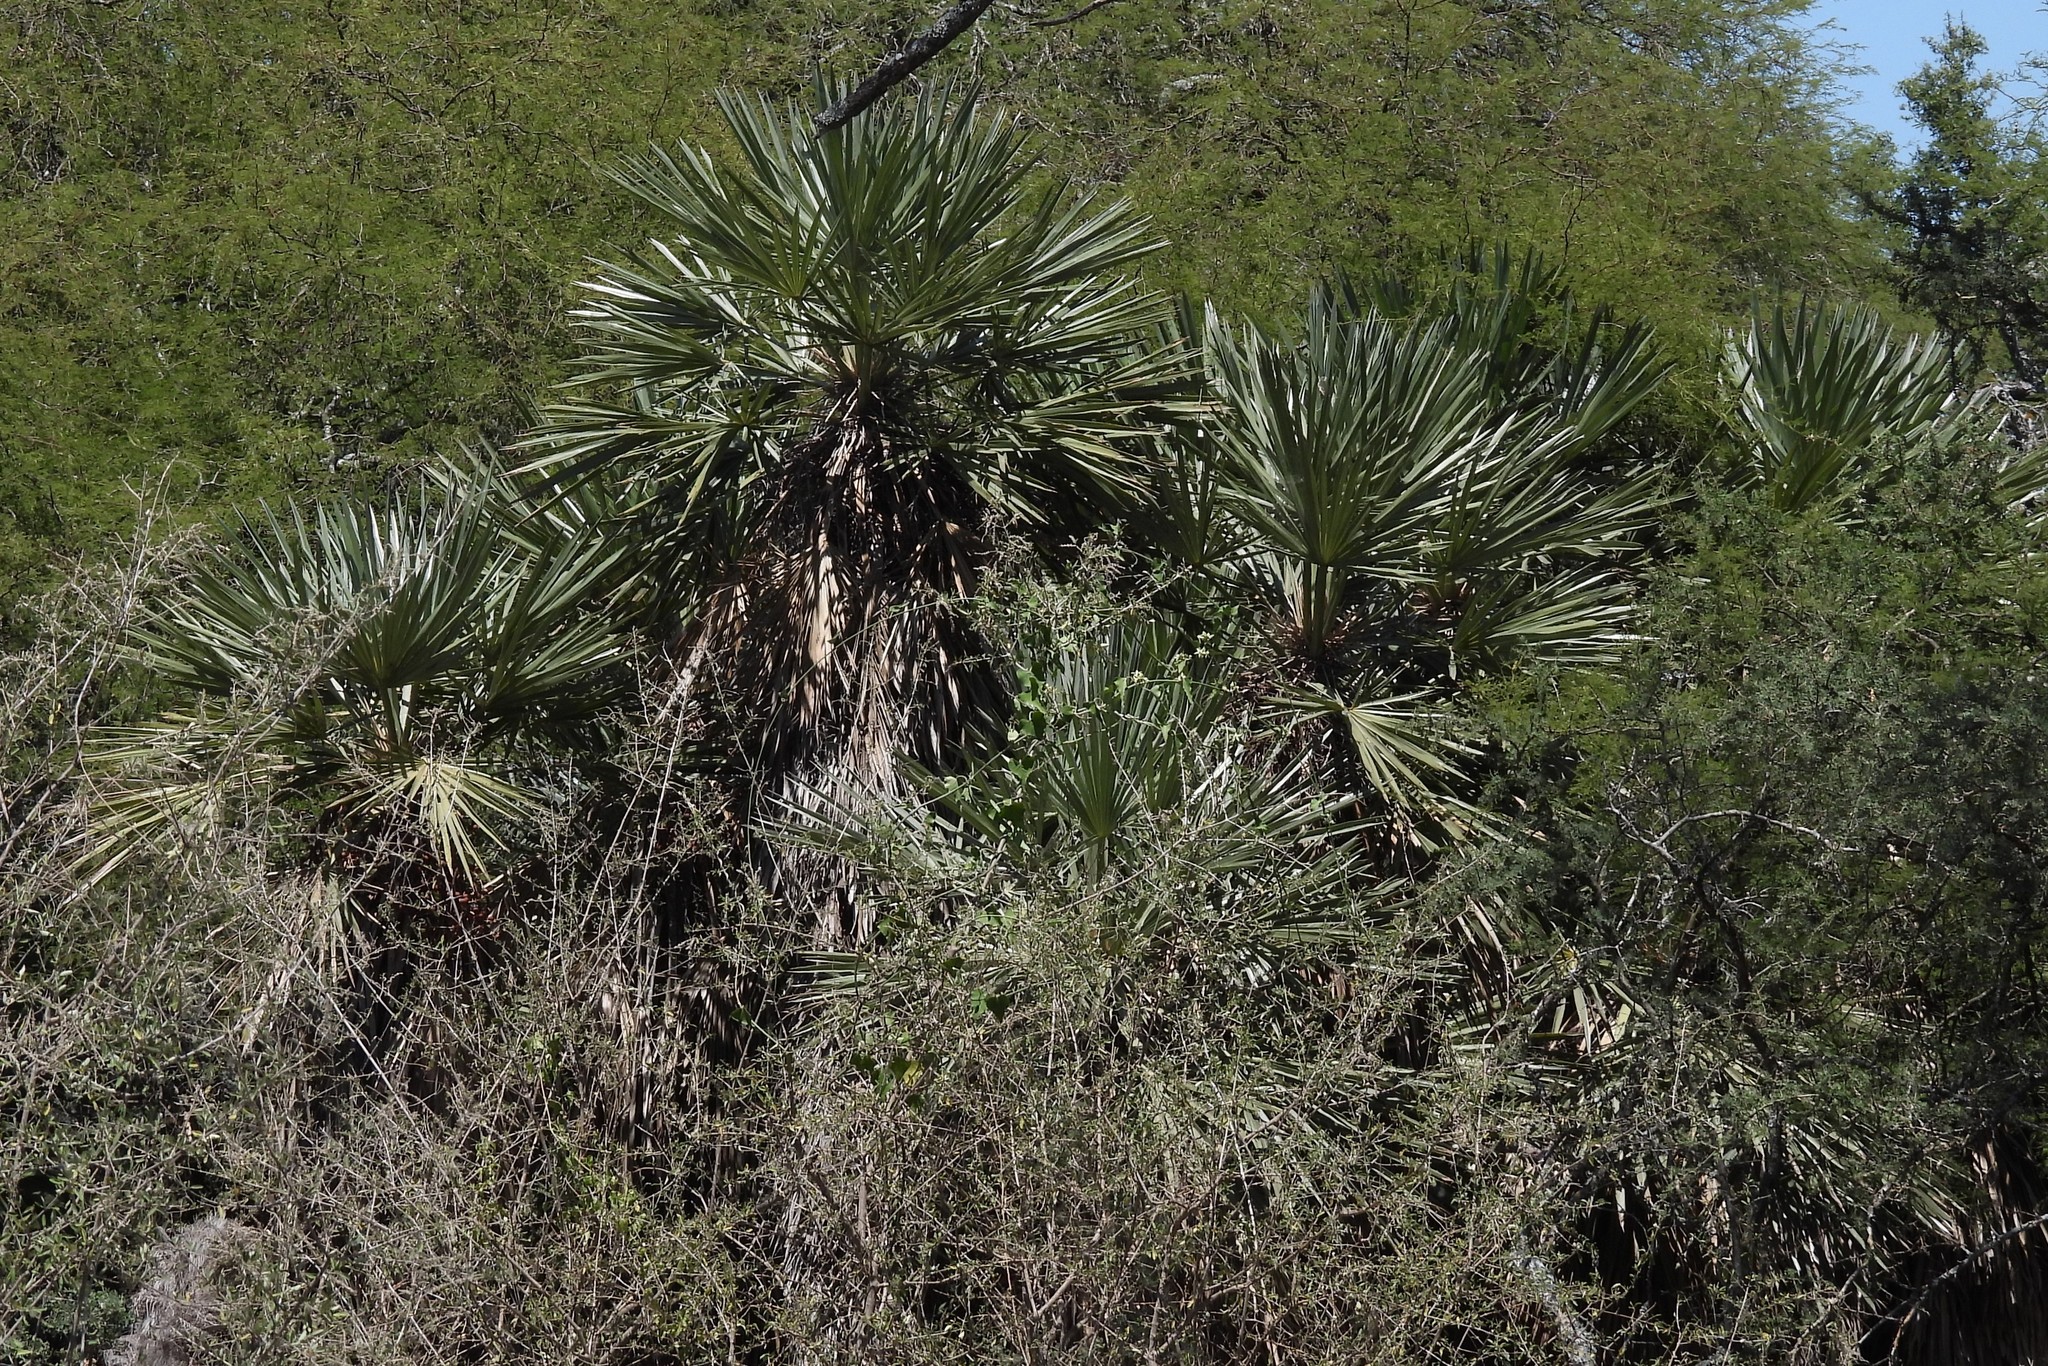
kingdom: Plantae
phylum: Tracheophyta
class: Liliopsida
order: Arecales
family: Arecaceae
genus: Trithrinax
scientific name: Trithrinax campestris
